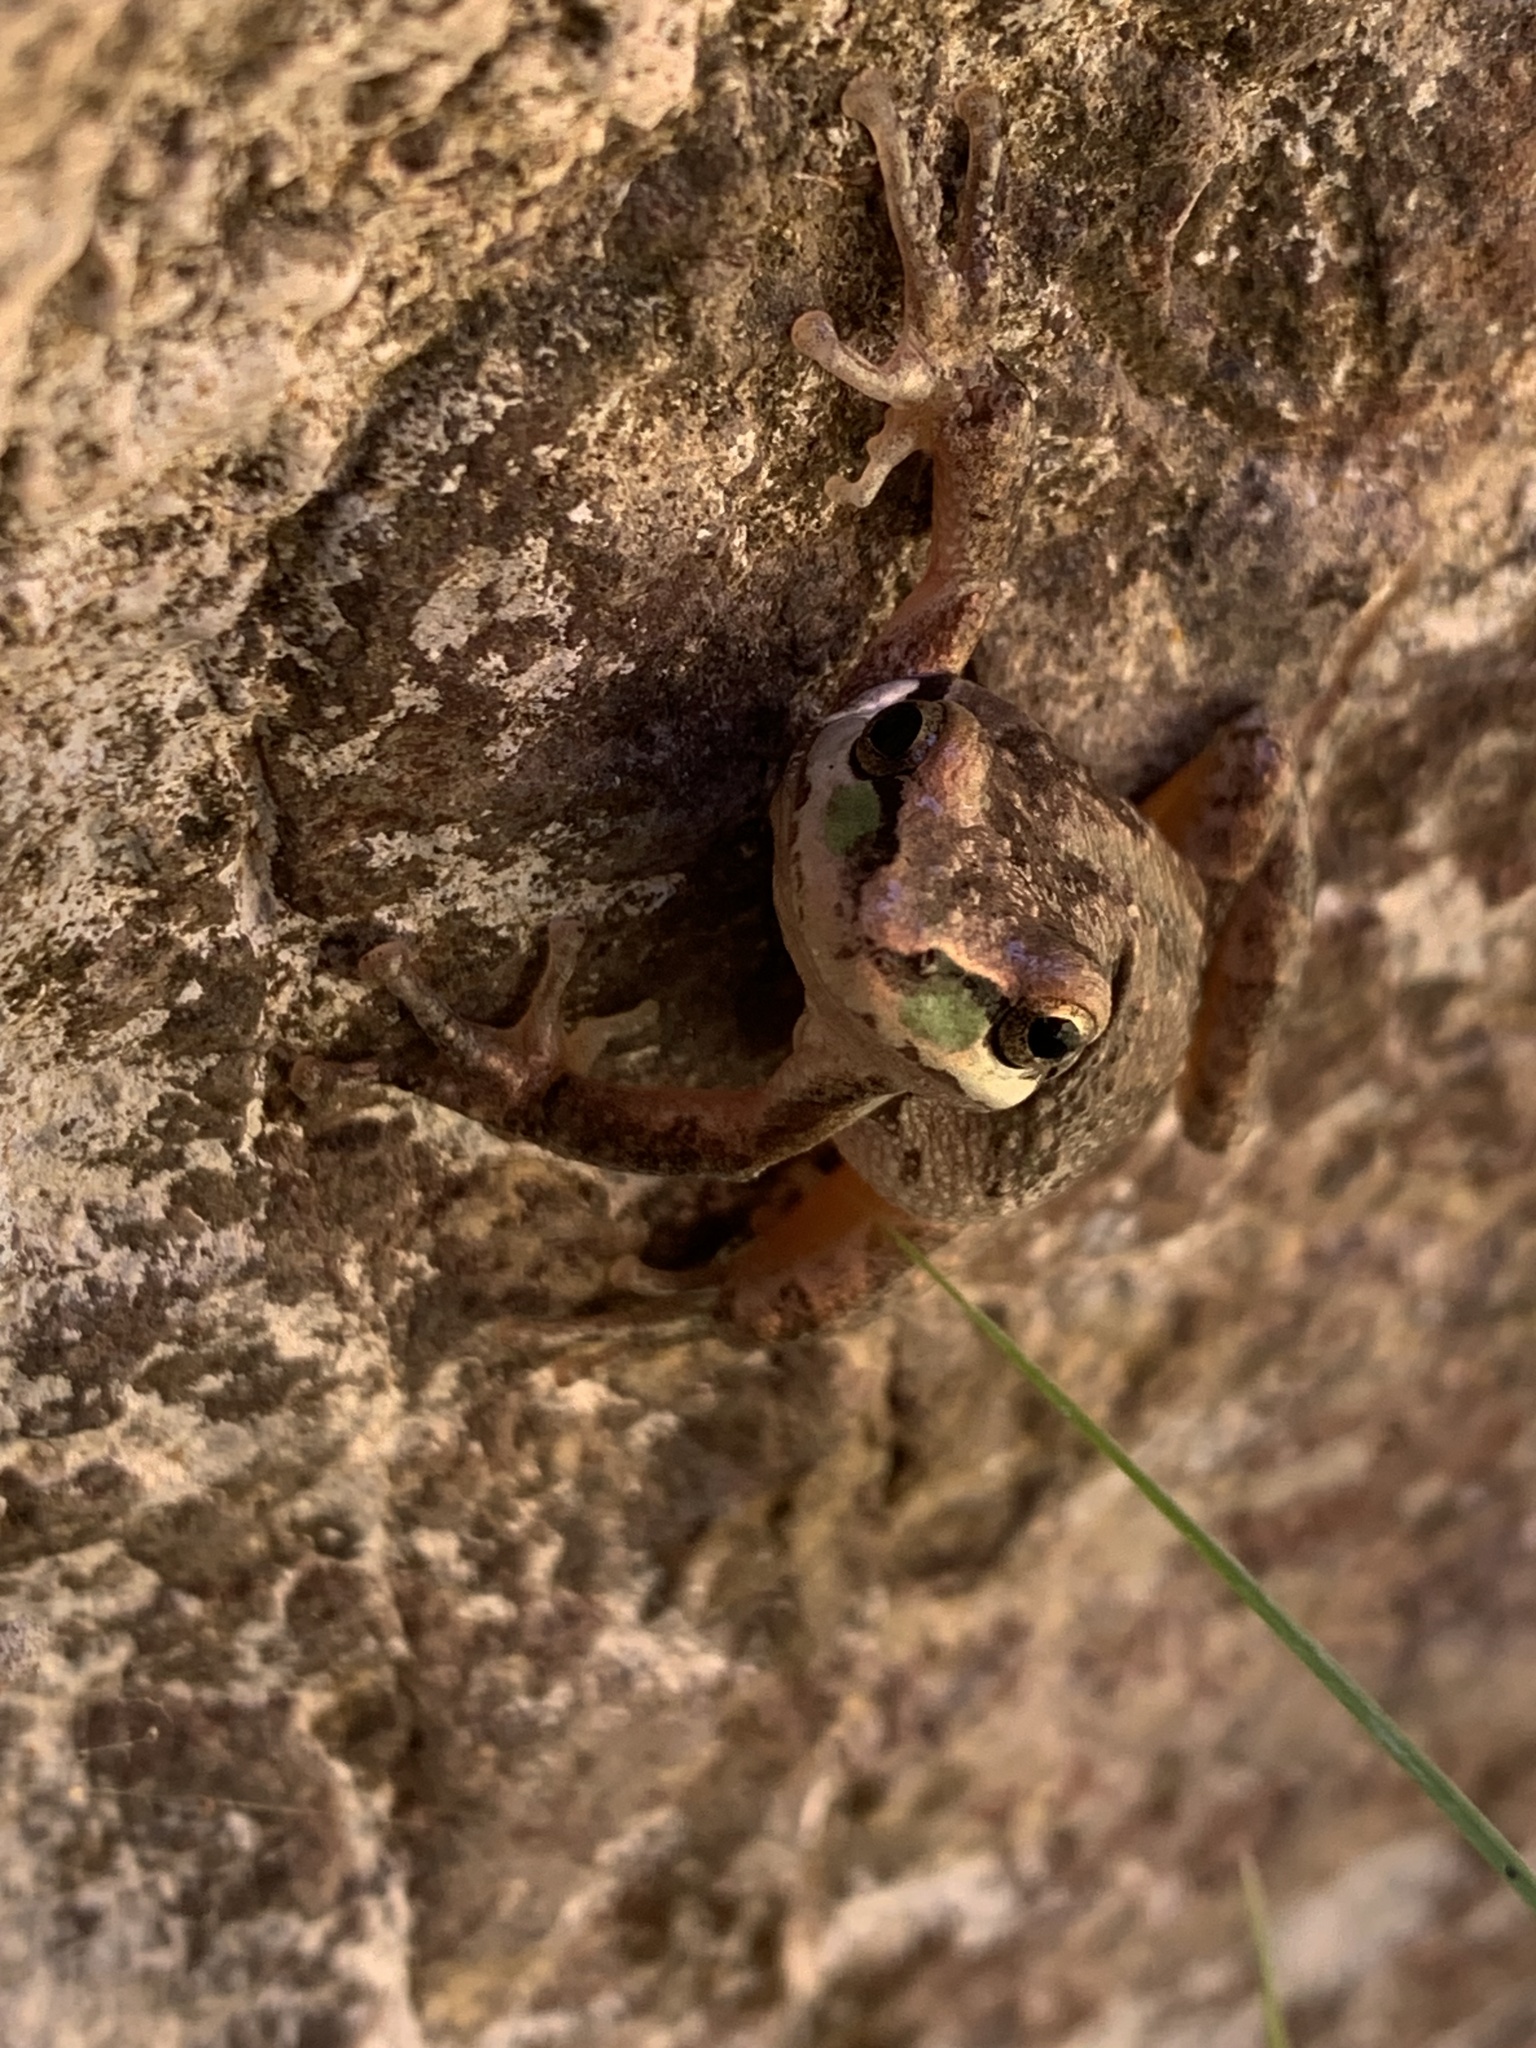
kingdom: Animalia
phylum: Chordata
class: Amphibia
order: Anura
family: Hylidae
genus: Pseudacris
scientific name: Pseudacris regilla
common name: Pacific chorus frog
